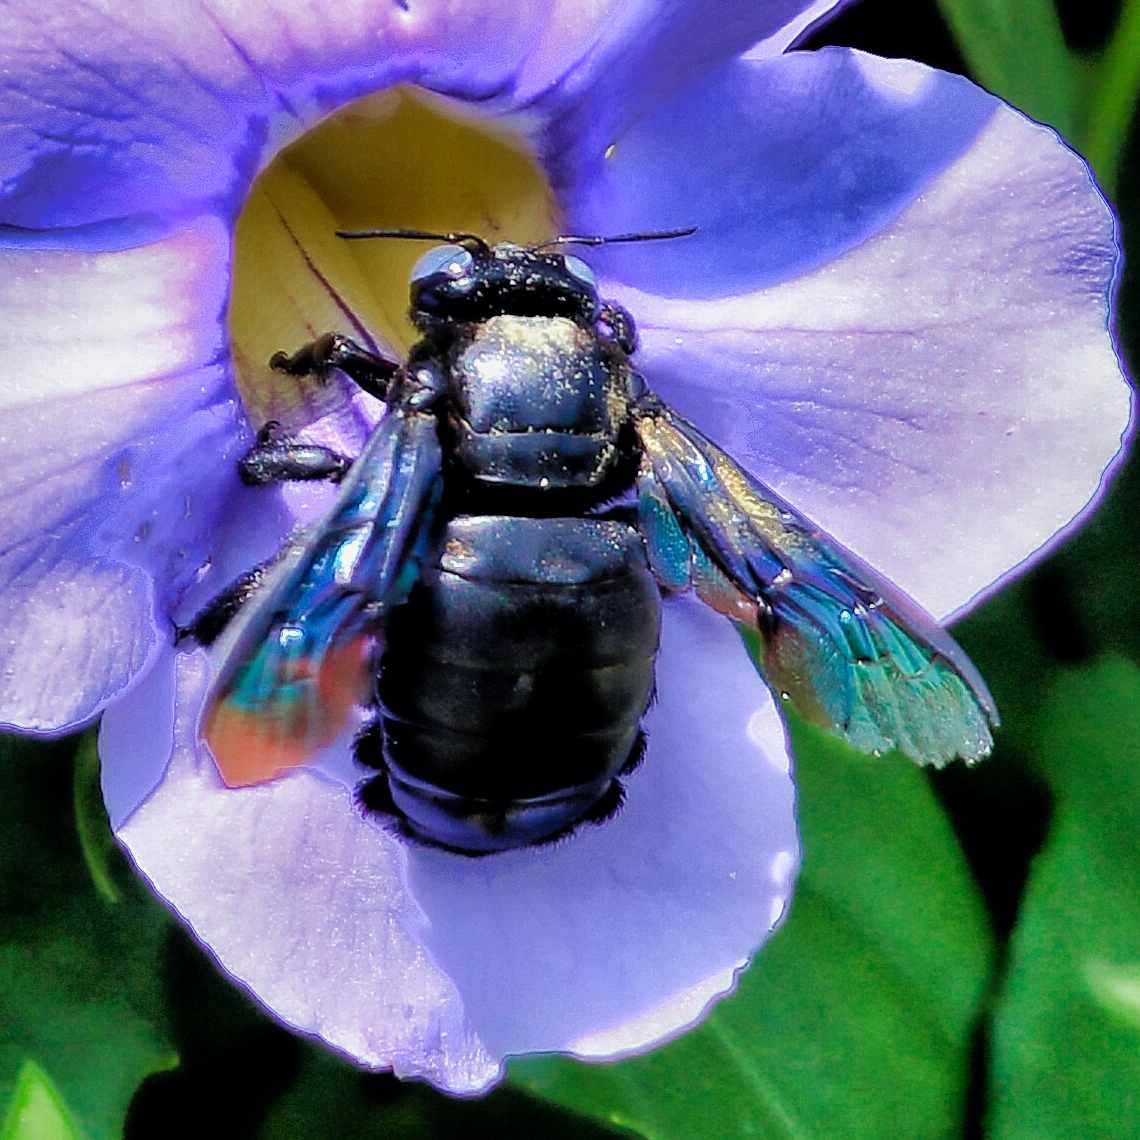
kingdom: Animalia
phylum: Arthropoda
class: Insecta
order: Hymenoptera
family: Apidae
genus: Xylocopa
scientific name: Xylocopa tenuiscapa
